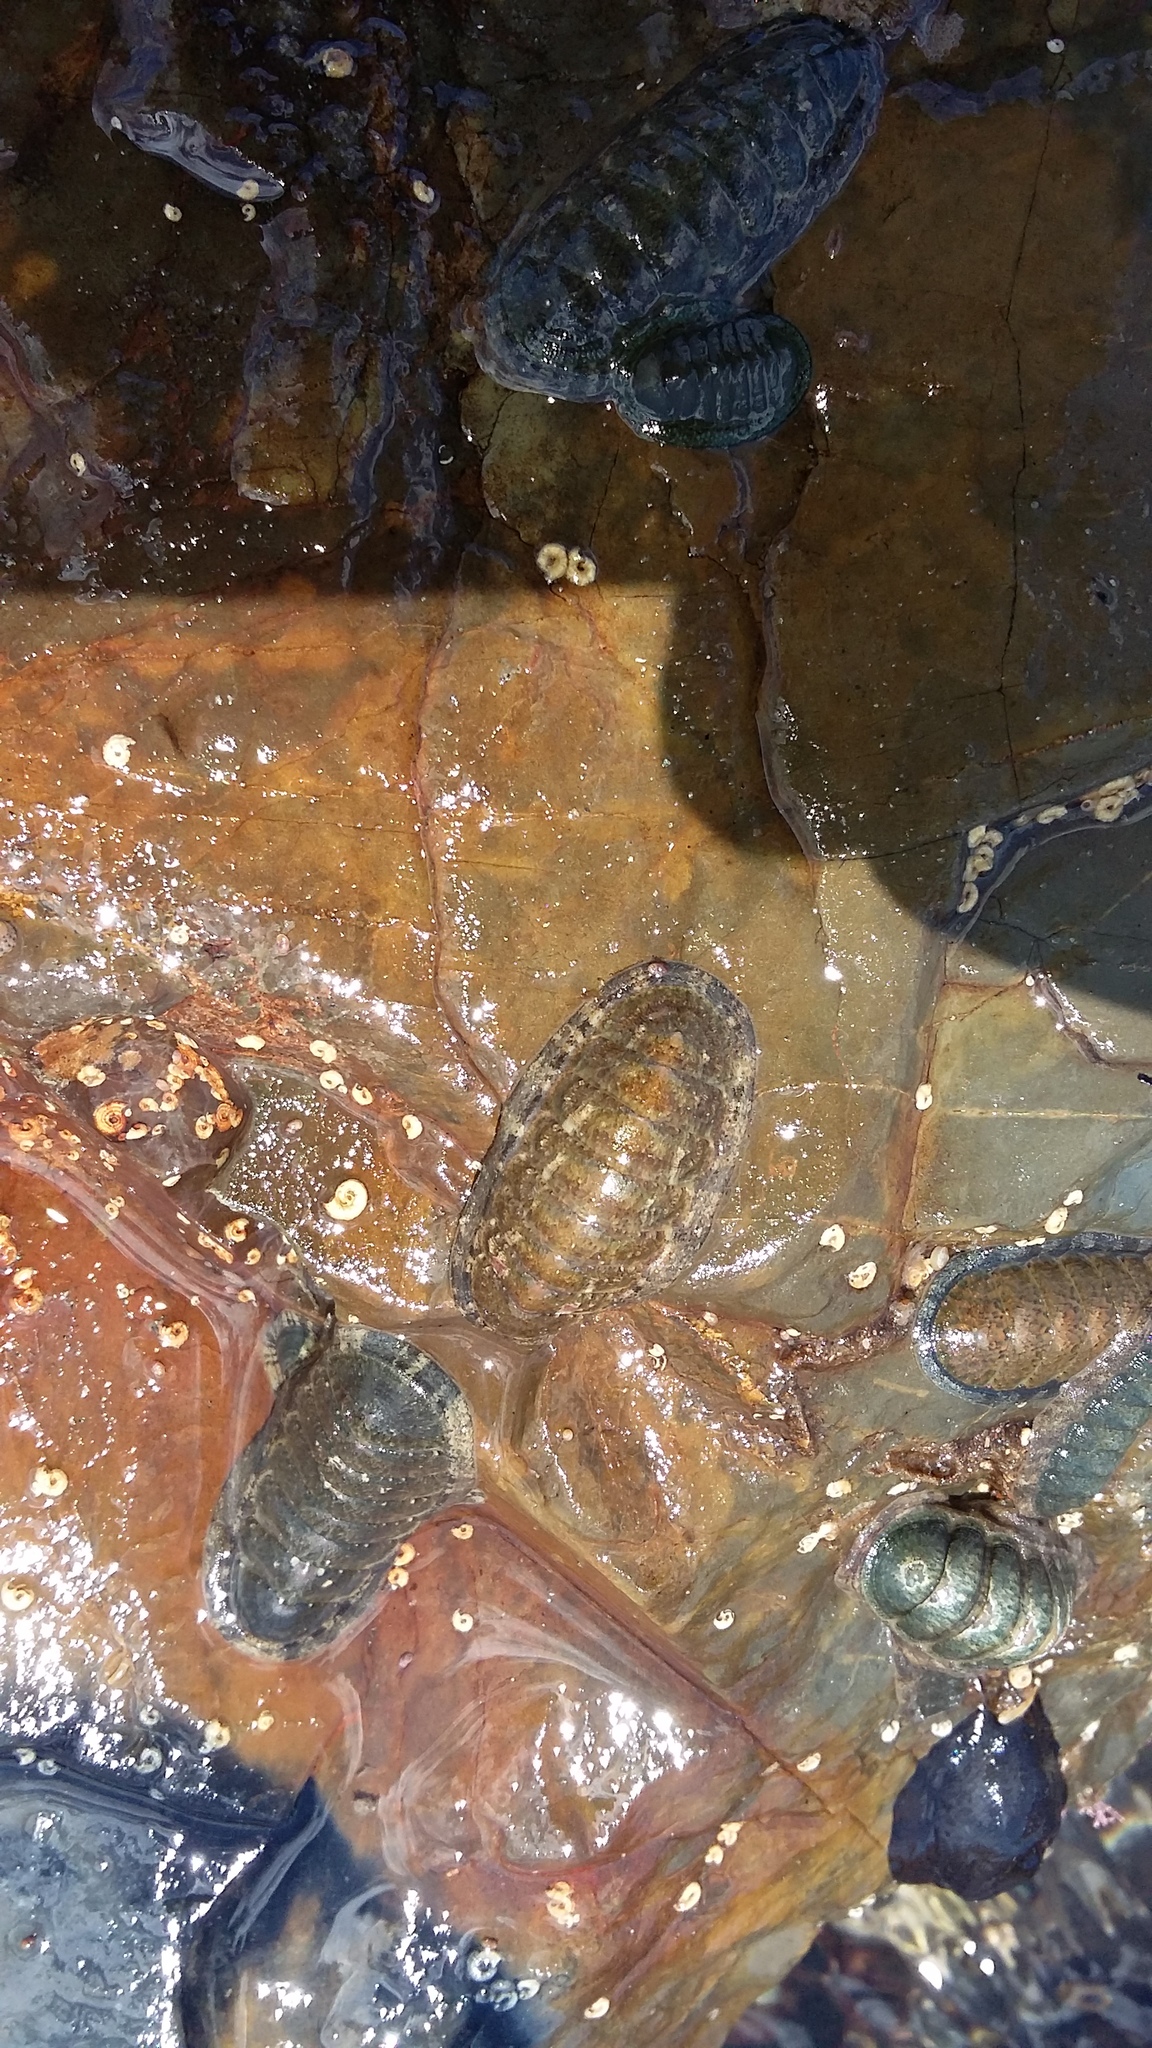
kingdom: Animalia
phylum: Mollusca
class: Polyplacophora
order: Chitonida
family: Ischnochitonidae
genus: Ischnochiton
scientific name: Ischnochiton maorianus
